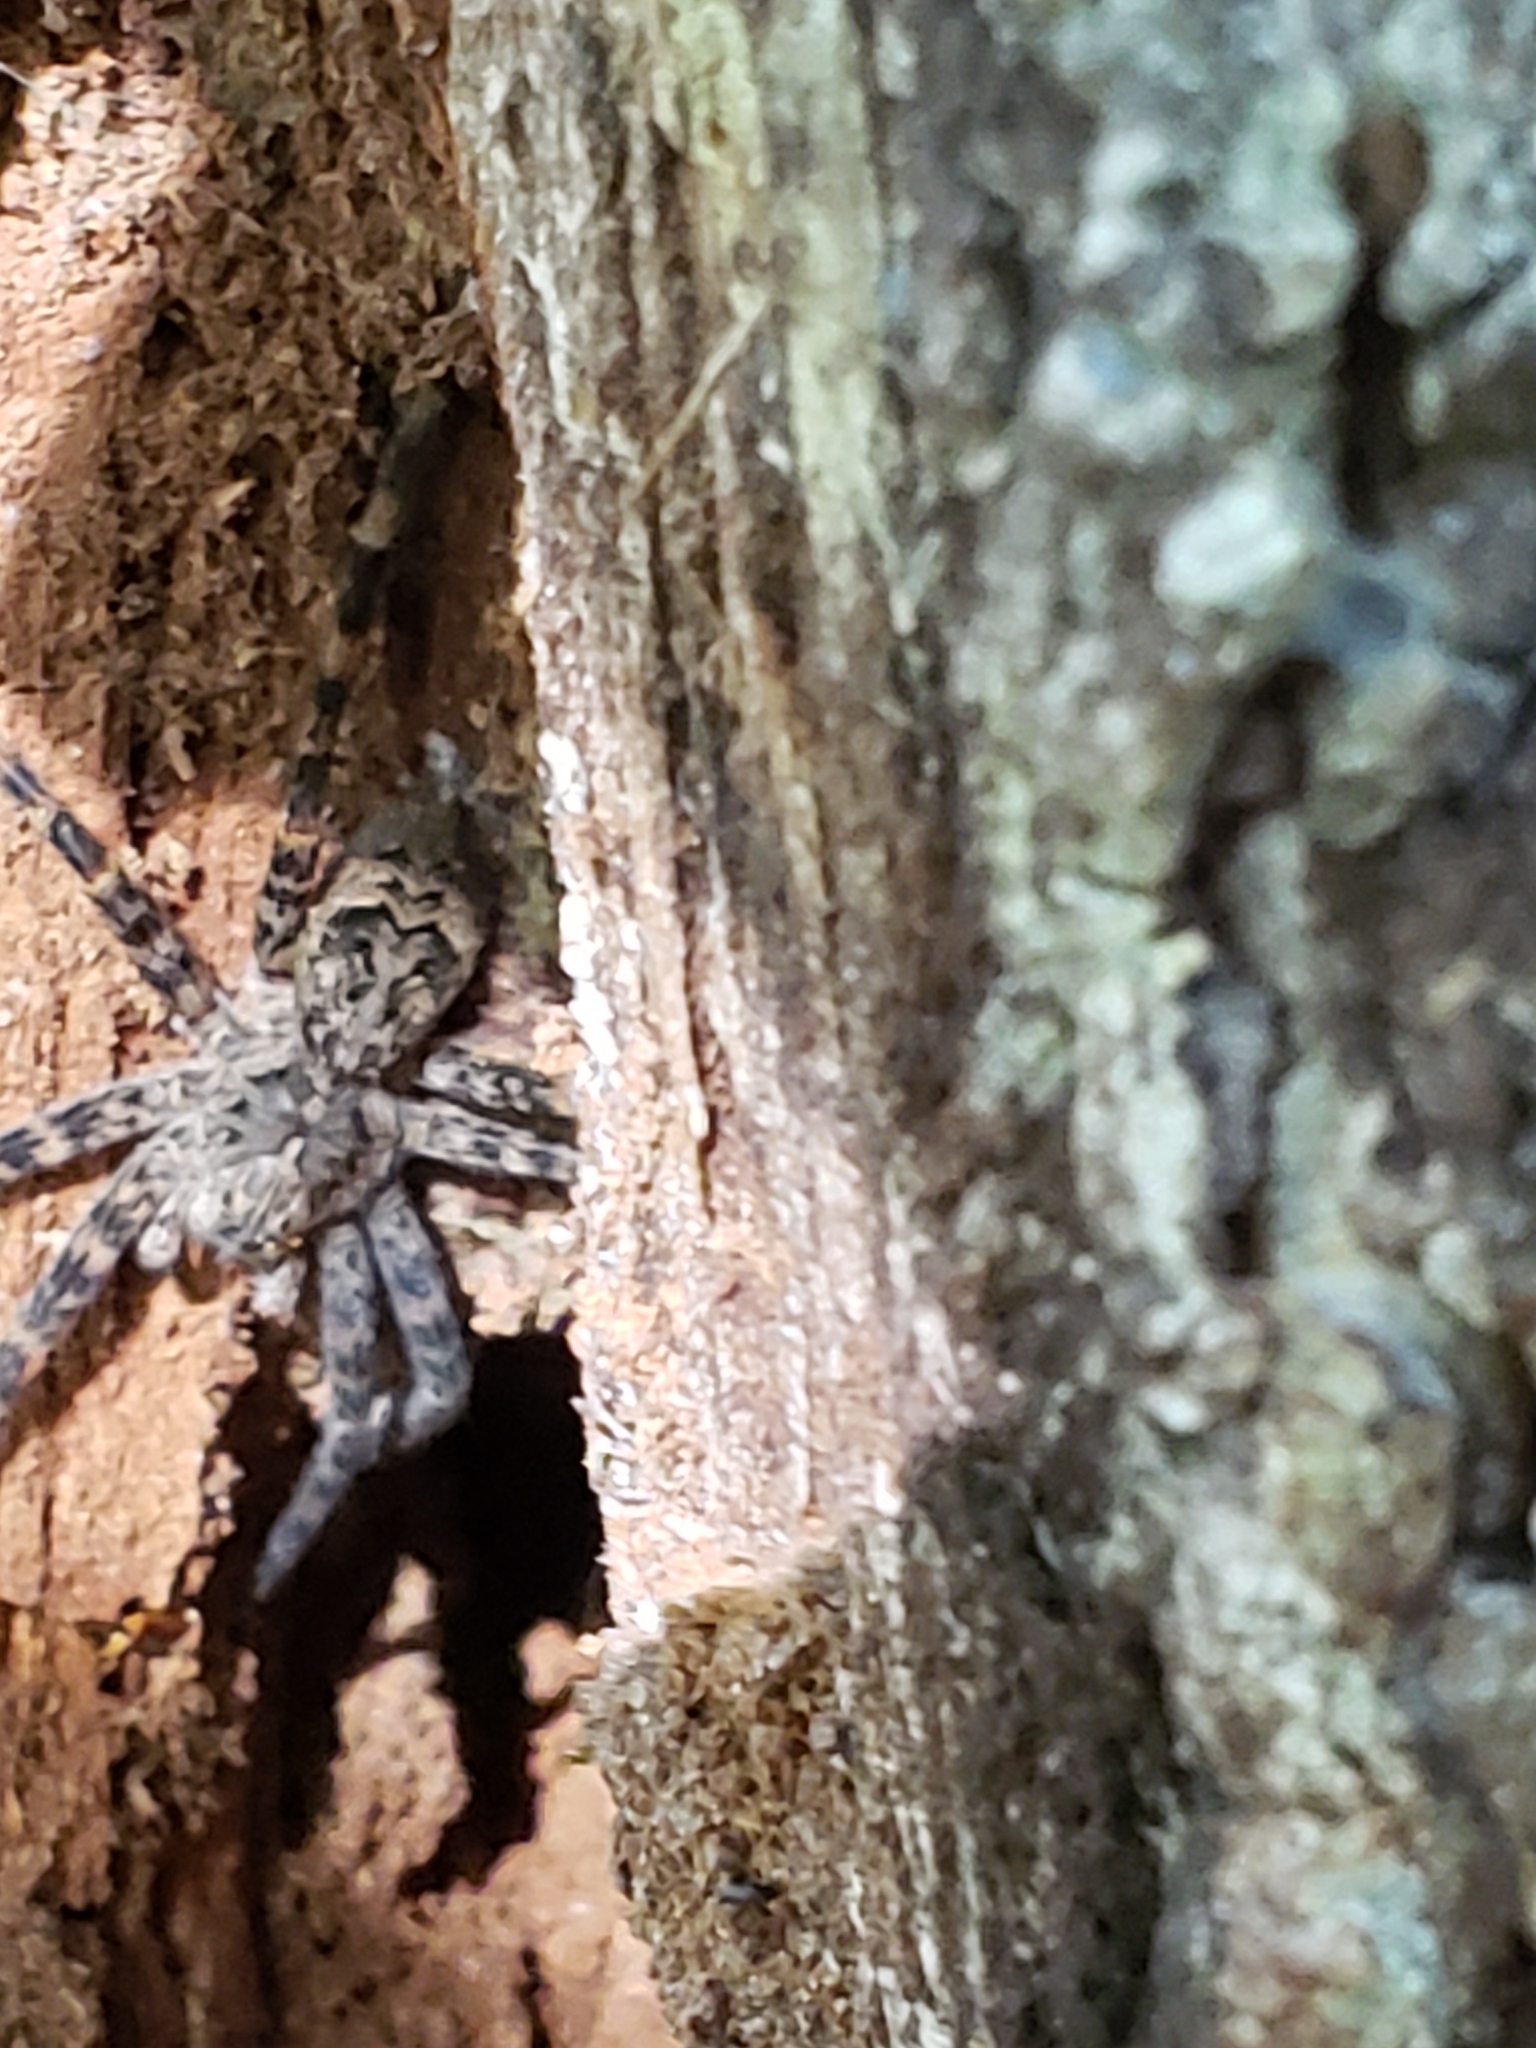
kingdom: Animalia
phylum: Arthropoda
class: Arachnida
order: Araneae
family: Pisauridae
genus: Dolomedes
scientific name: Dolomedes tenebrosus
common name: Dark fishing spider
